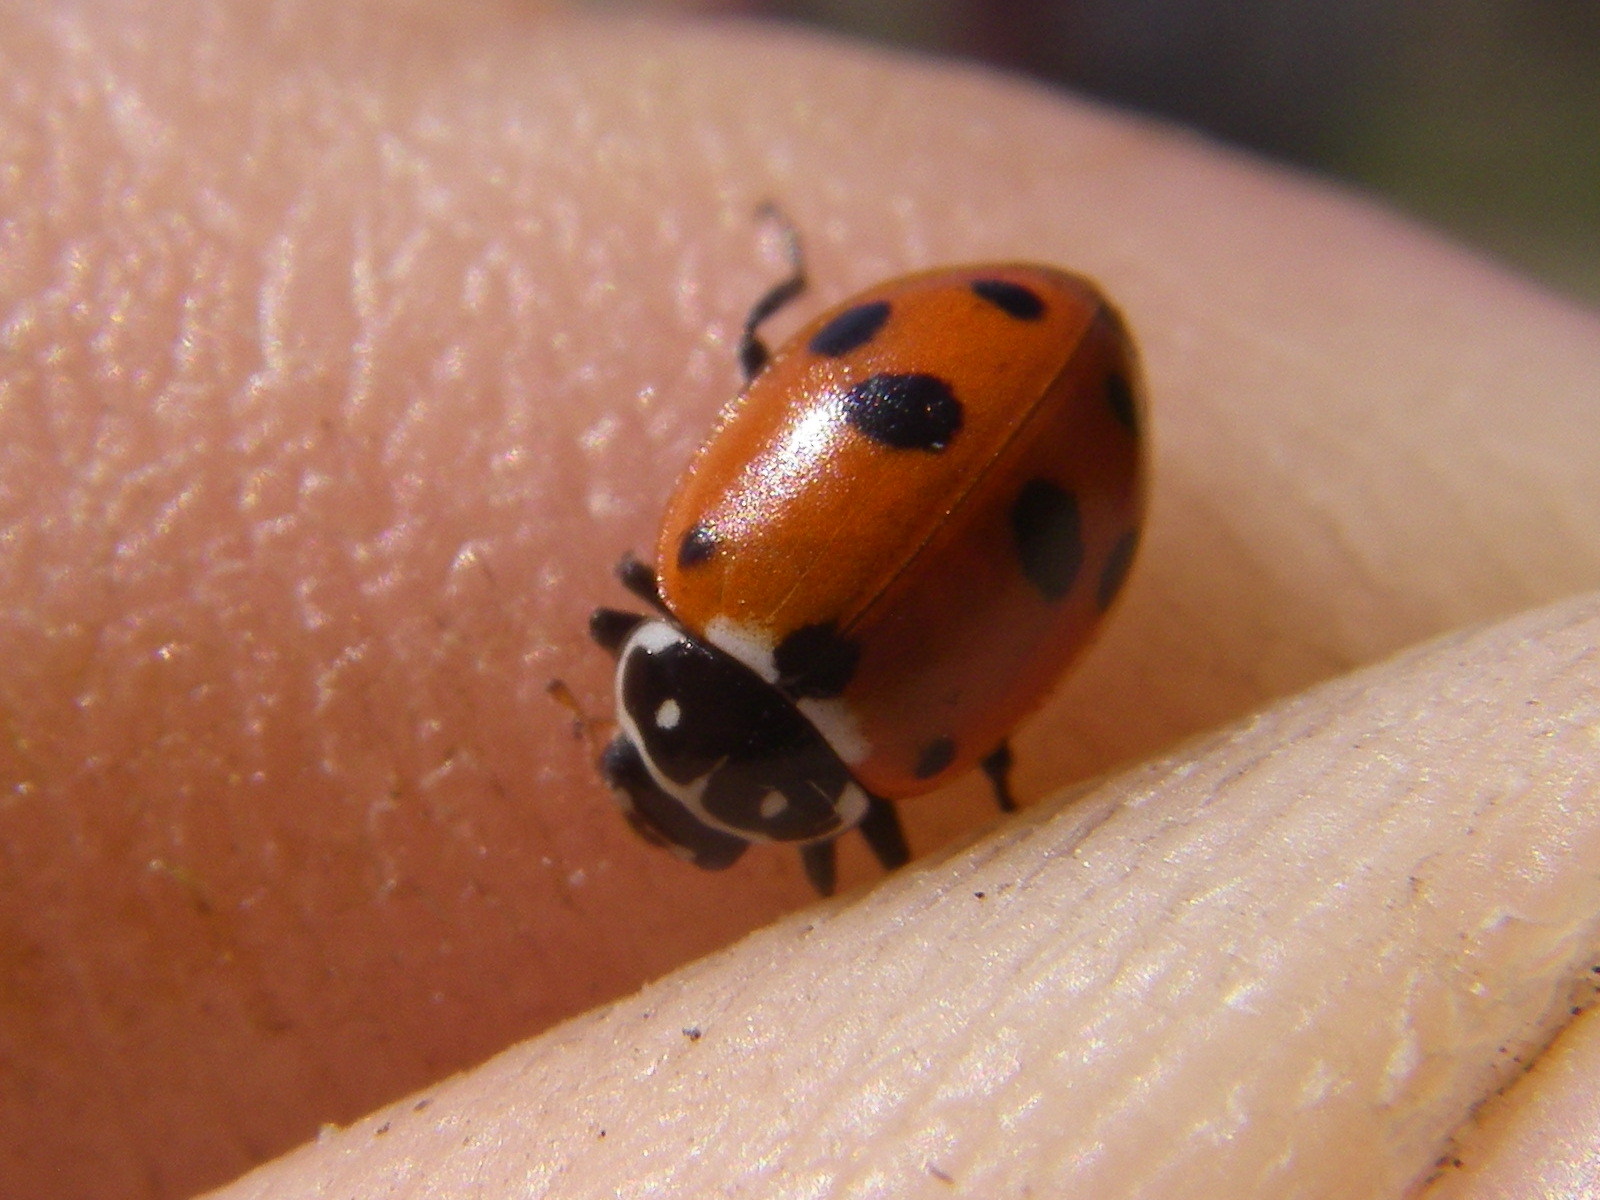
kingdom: Animalia
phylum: Arthropoda
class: Insecta
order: Coleoptera
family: Coccinellidae
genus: Hippodamia
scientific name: Hippodamia variegata
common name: Ladybird beetle
